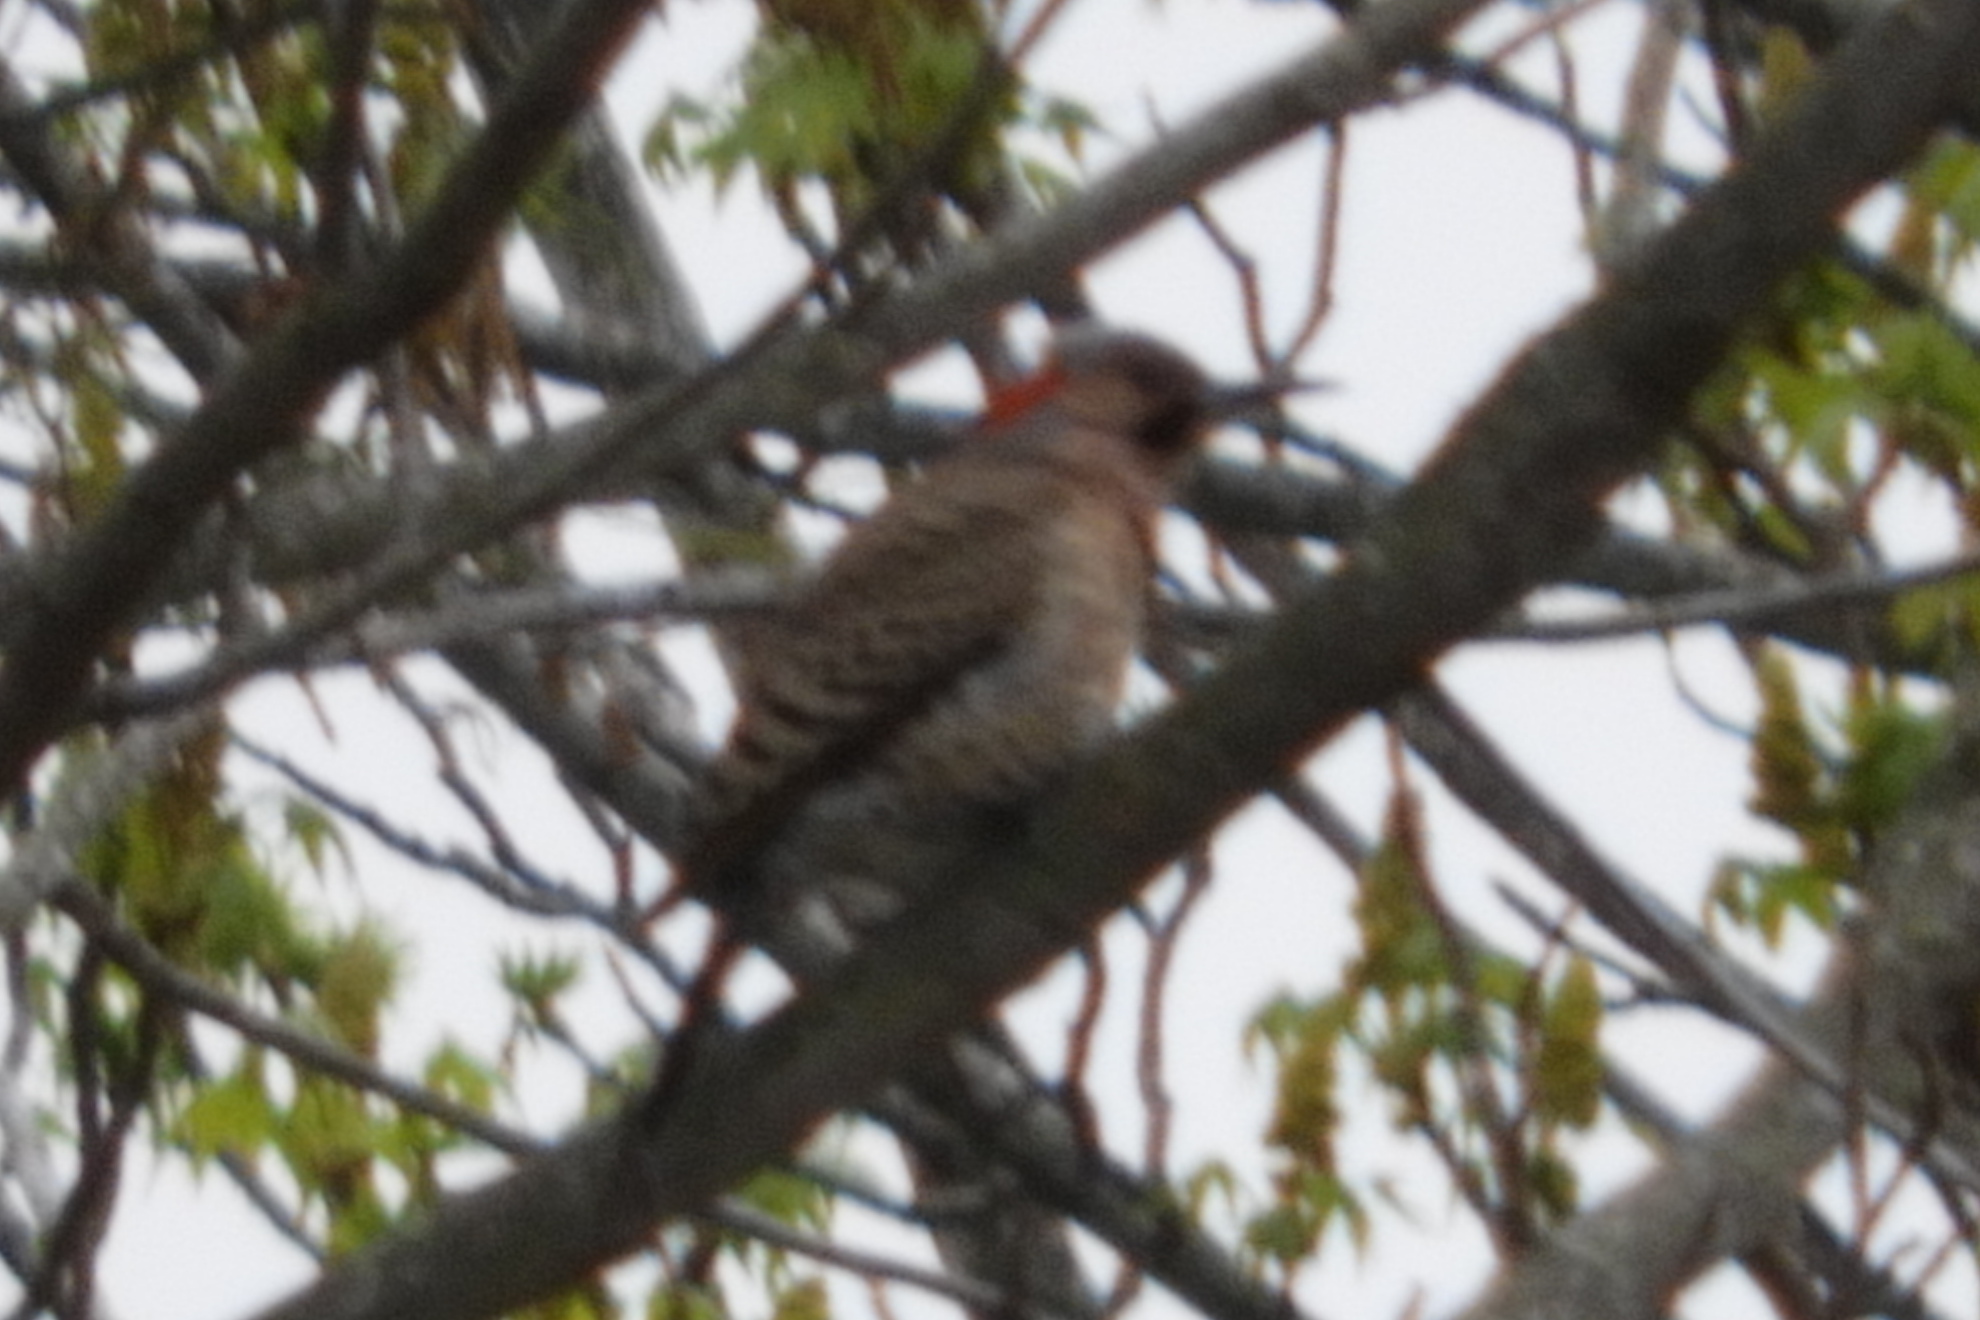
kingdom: Animalia
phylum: Chordata
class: Aves
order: Piciformes
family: Picidae
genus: Colaptes
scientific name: Colaptes auratus
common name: Northern flicker
